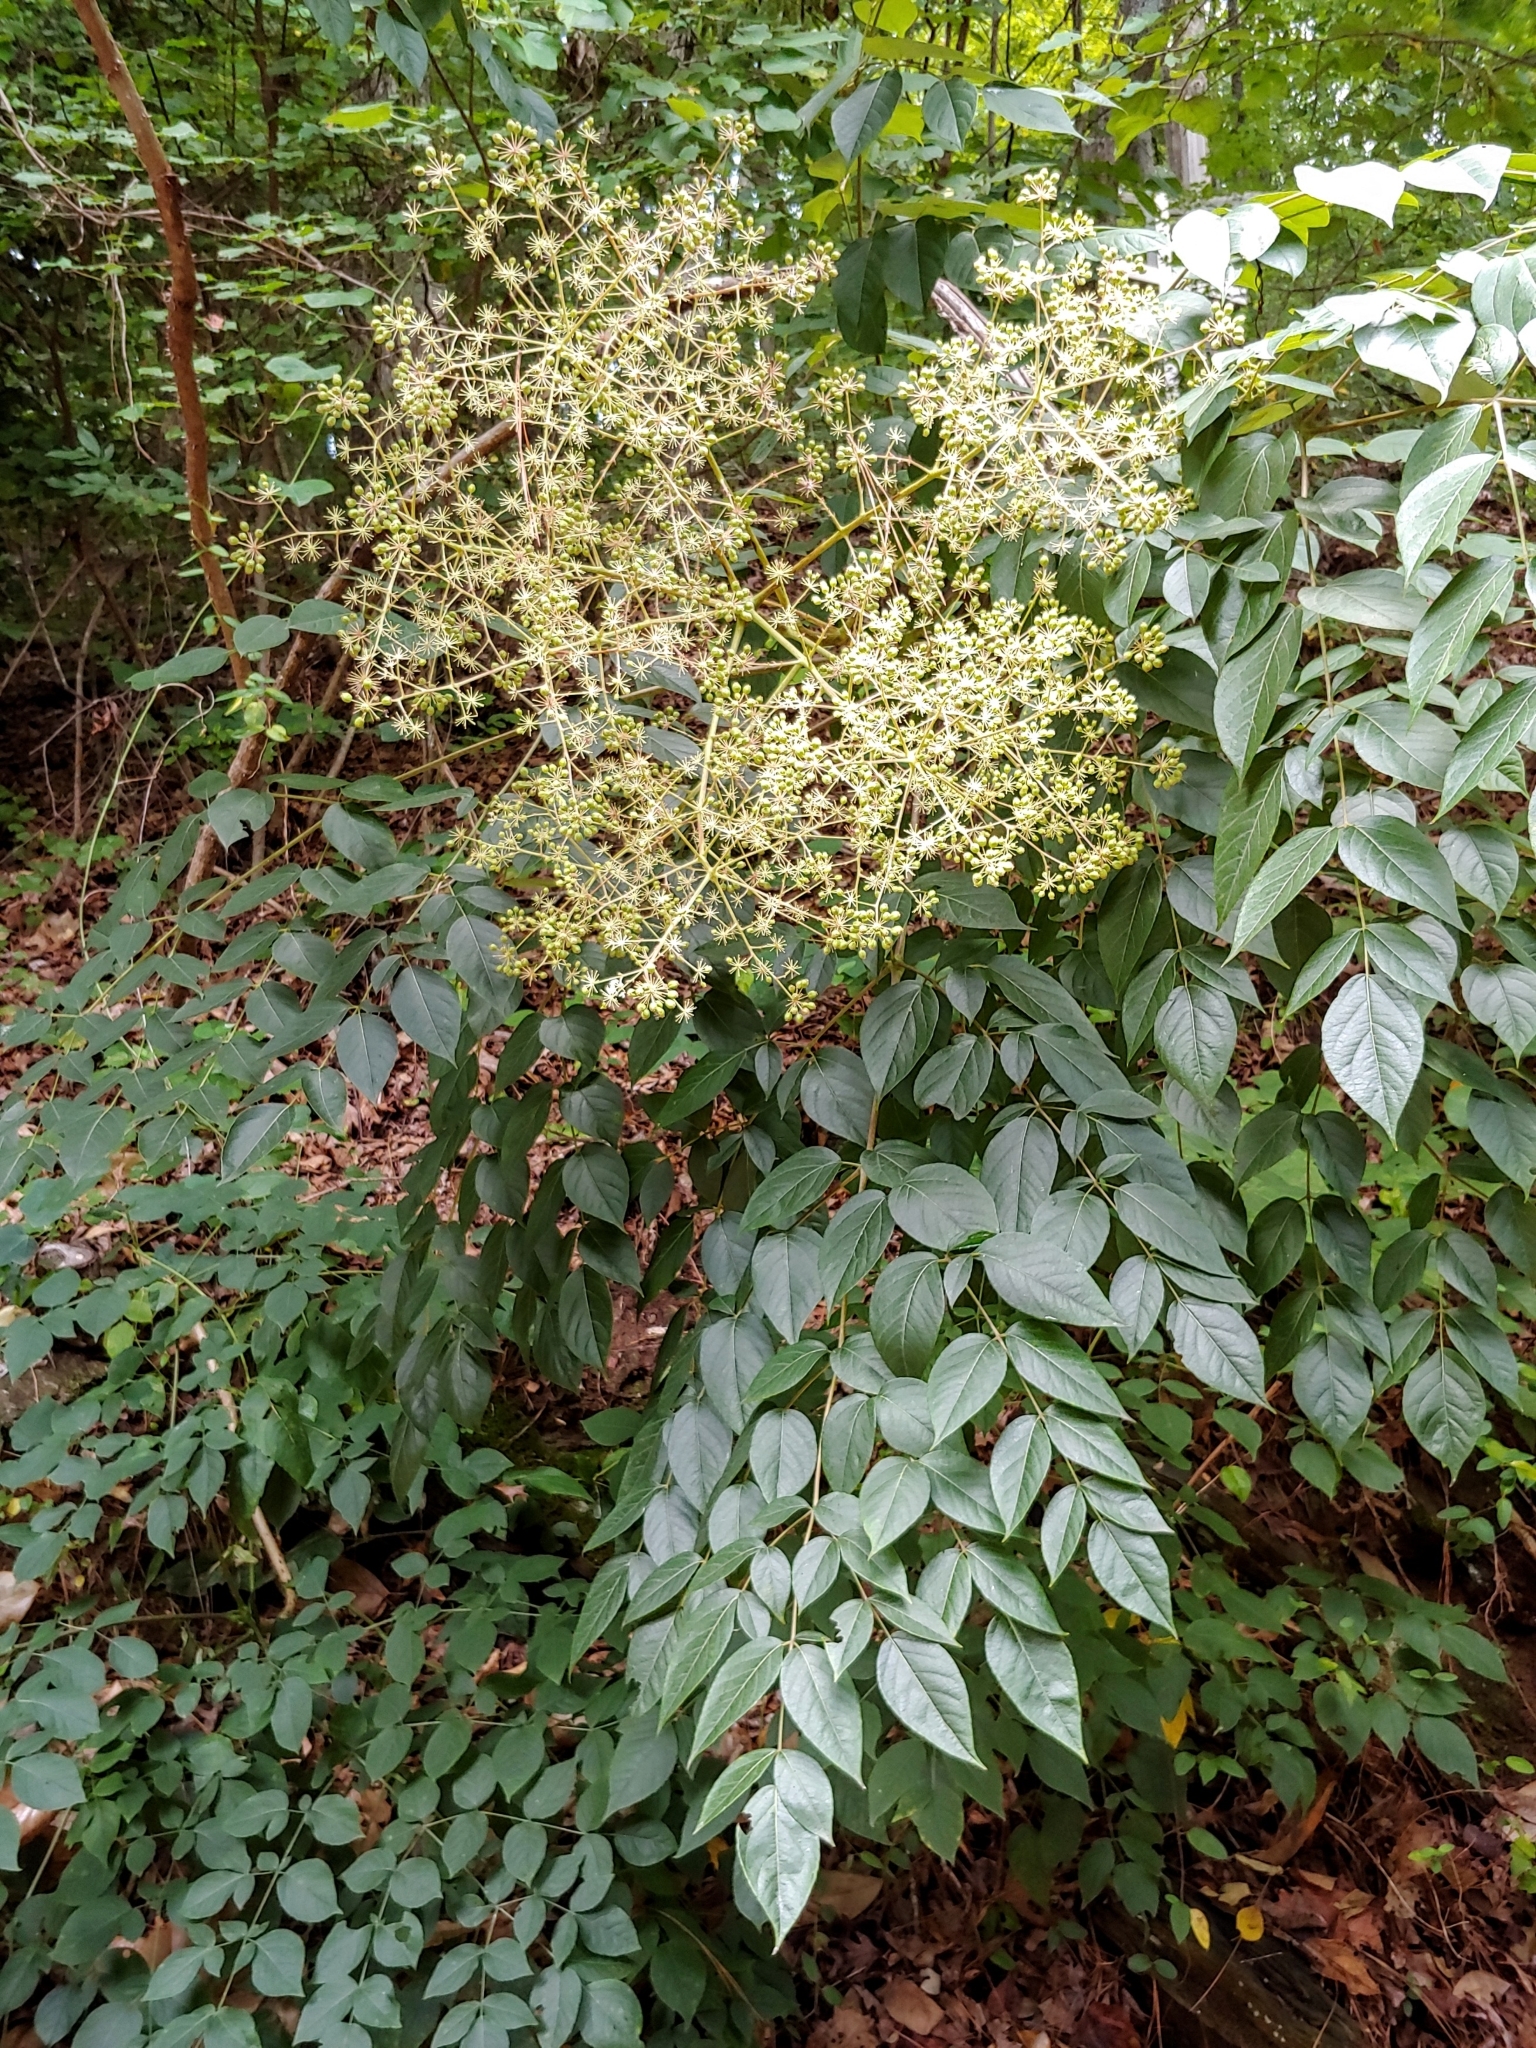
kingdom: Plantae
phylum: Tracheophyta
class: Magnoliopsida
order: Apiales
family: Araliaceae
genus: Aralia
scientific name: Aralia spinosa
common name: Hercules'-club
